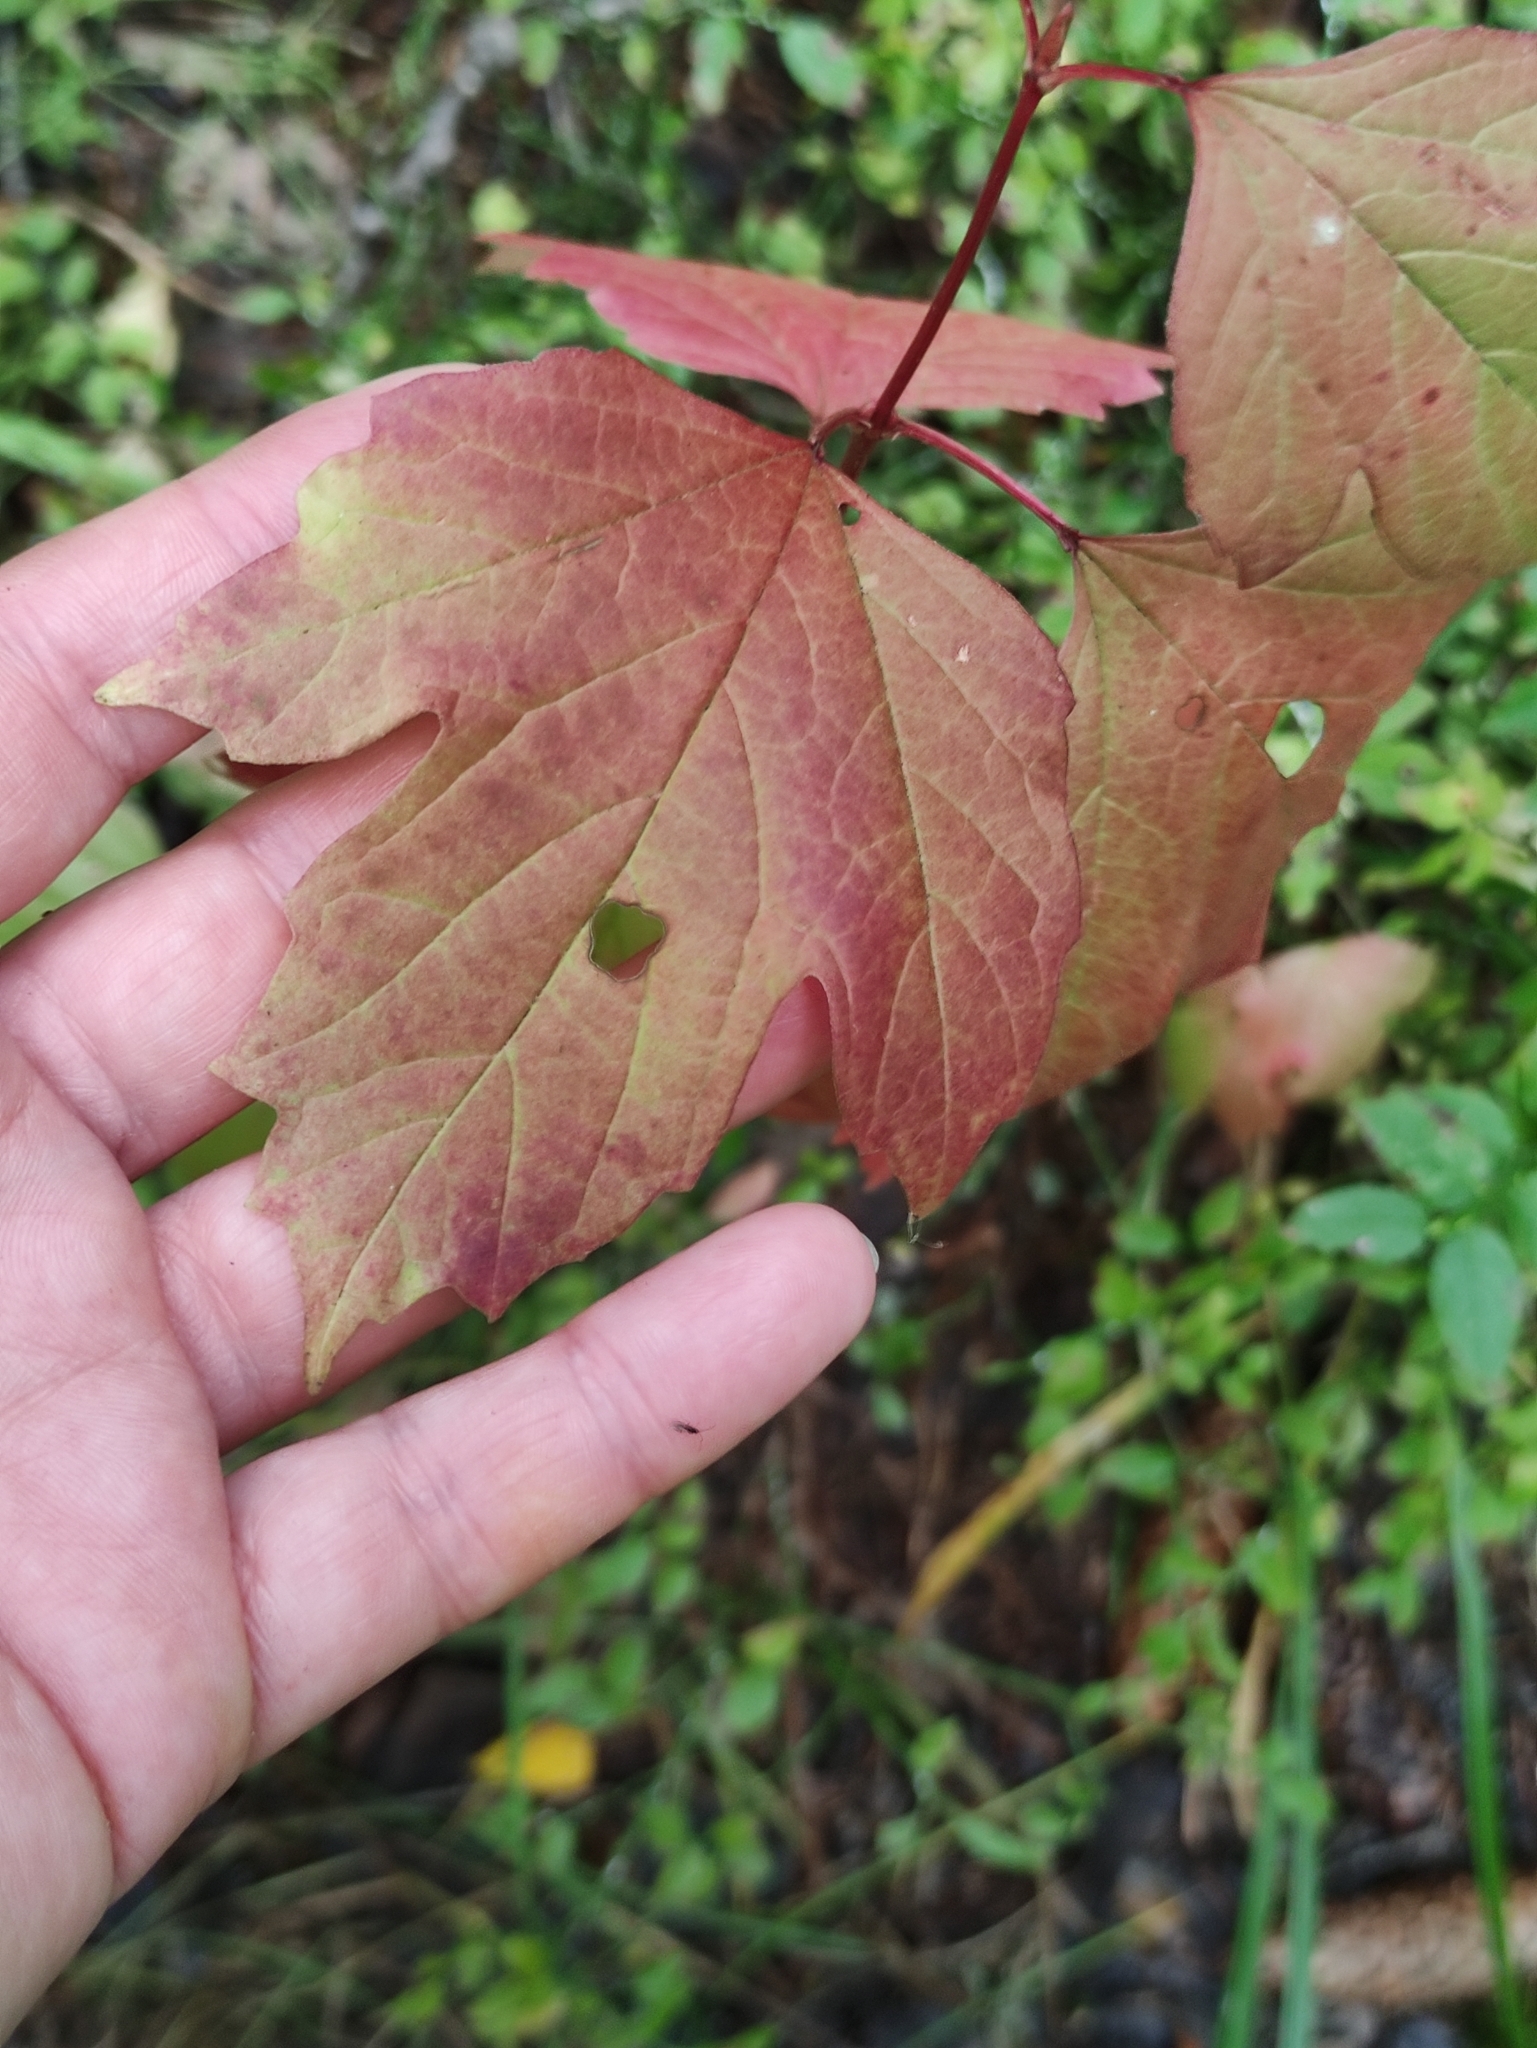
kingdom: Plantae
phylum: Tracheophyta
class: Magnoliopsida
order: Dipsacales
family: Viburnaceae
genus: Viburnum
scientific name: Viburnum opulus
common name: Guelder-rose
